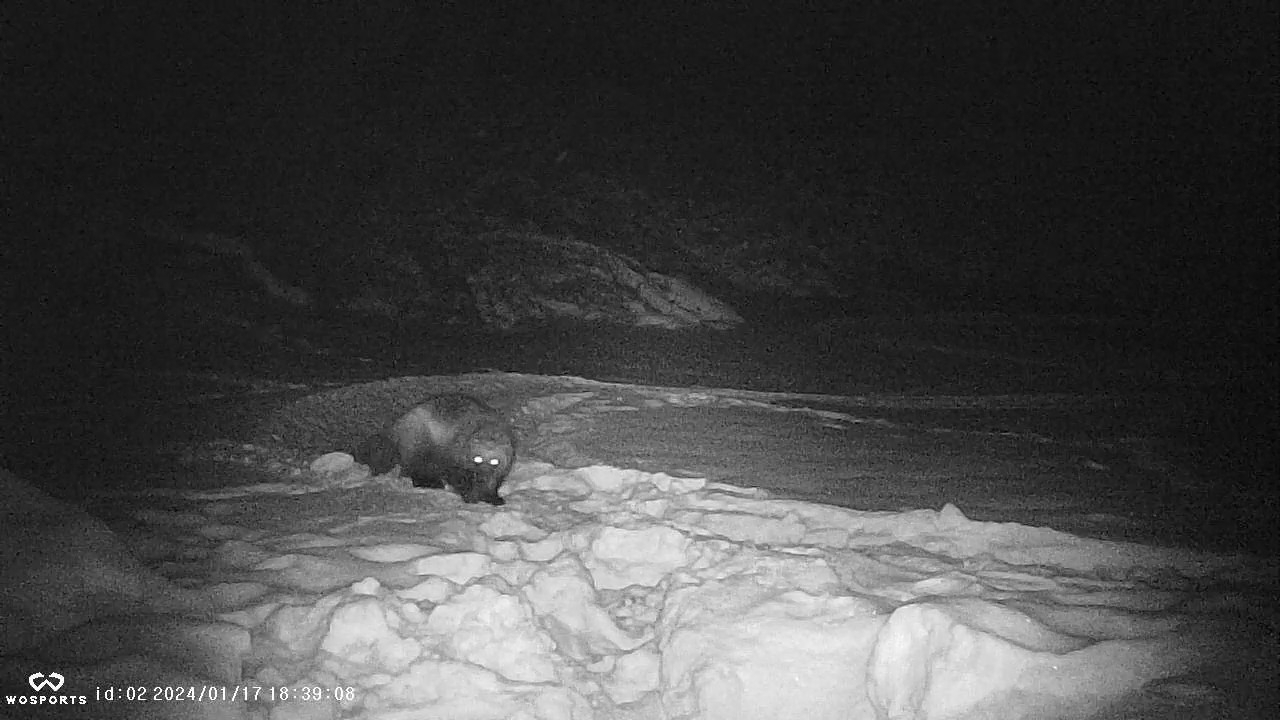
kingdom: Animalia
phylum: Chordata
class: Mammalia
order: Carnivora
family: Mustelidae
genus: Gulo
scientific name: Gulo gulo
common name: Wolverine
